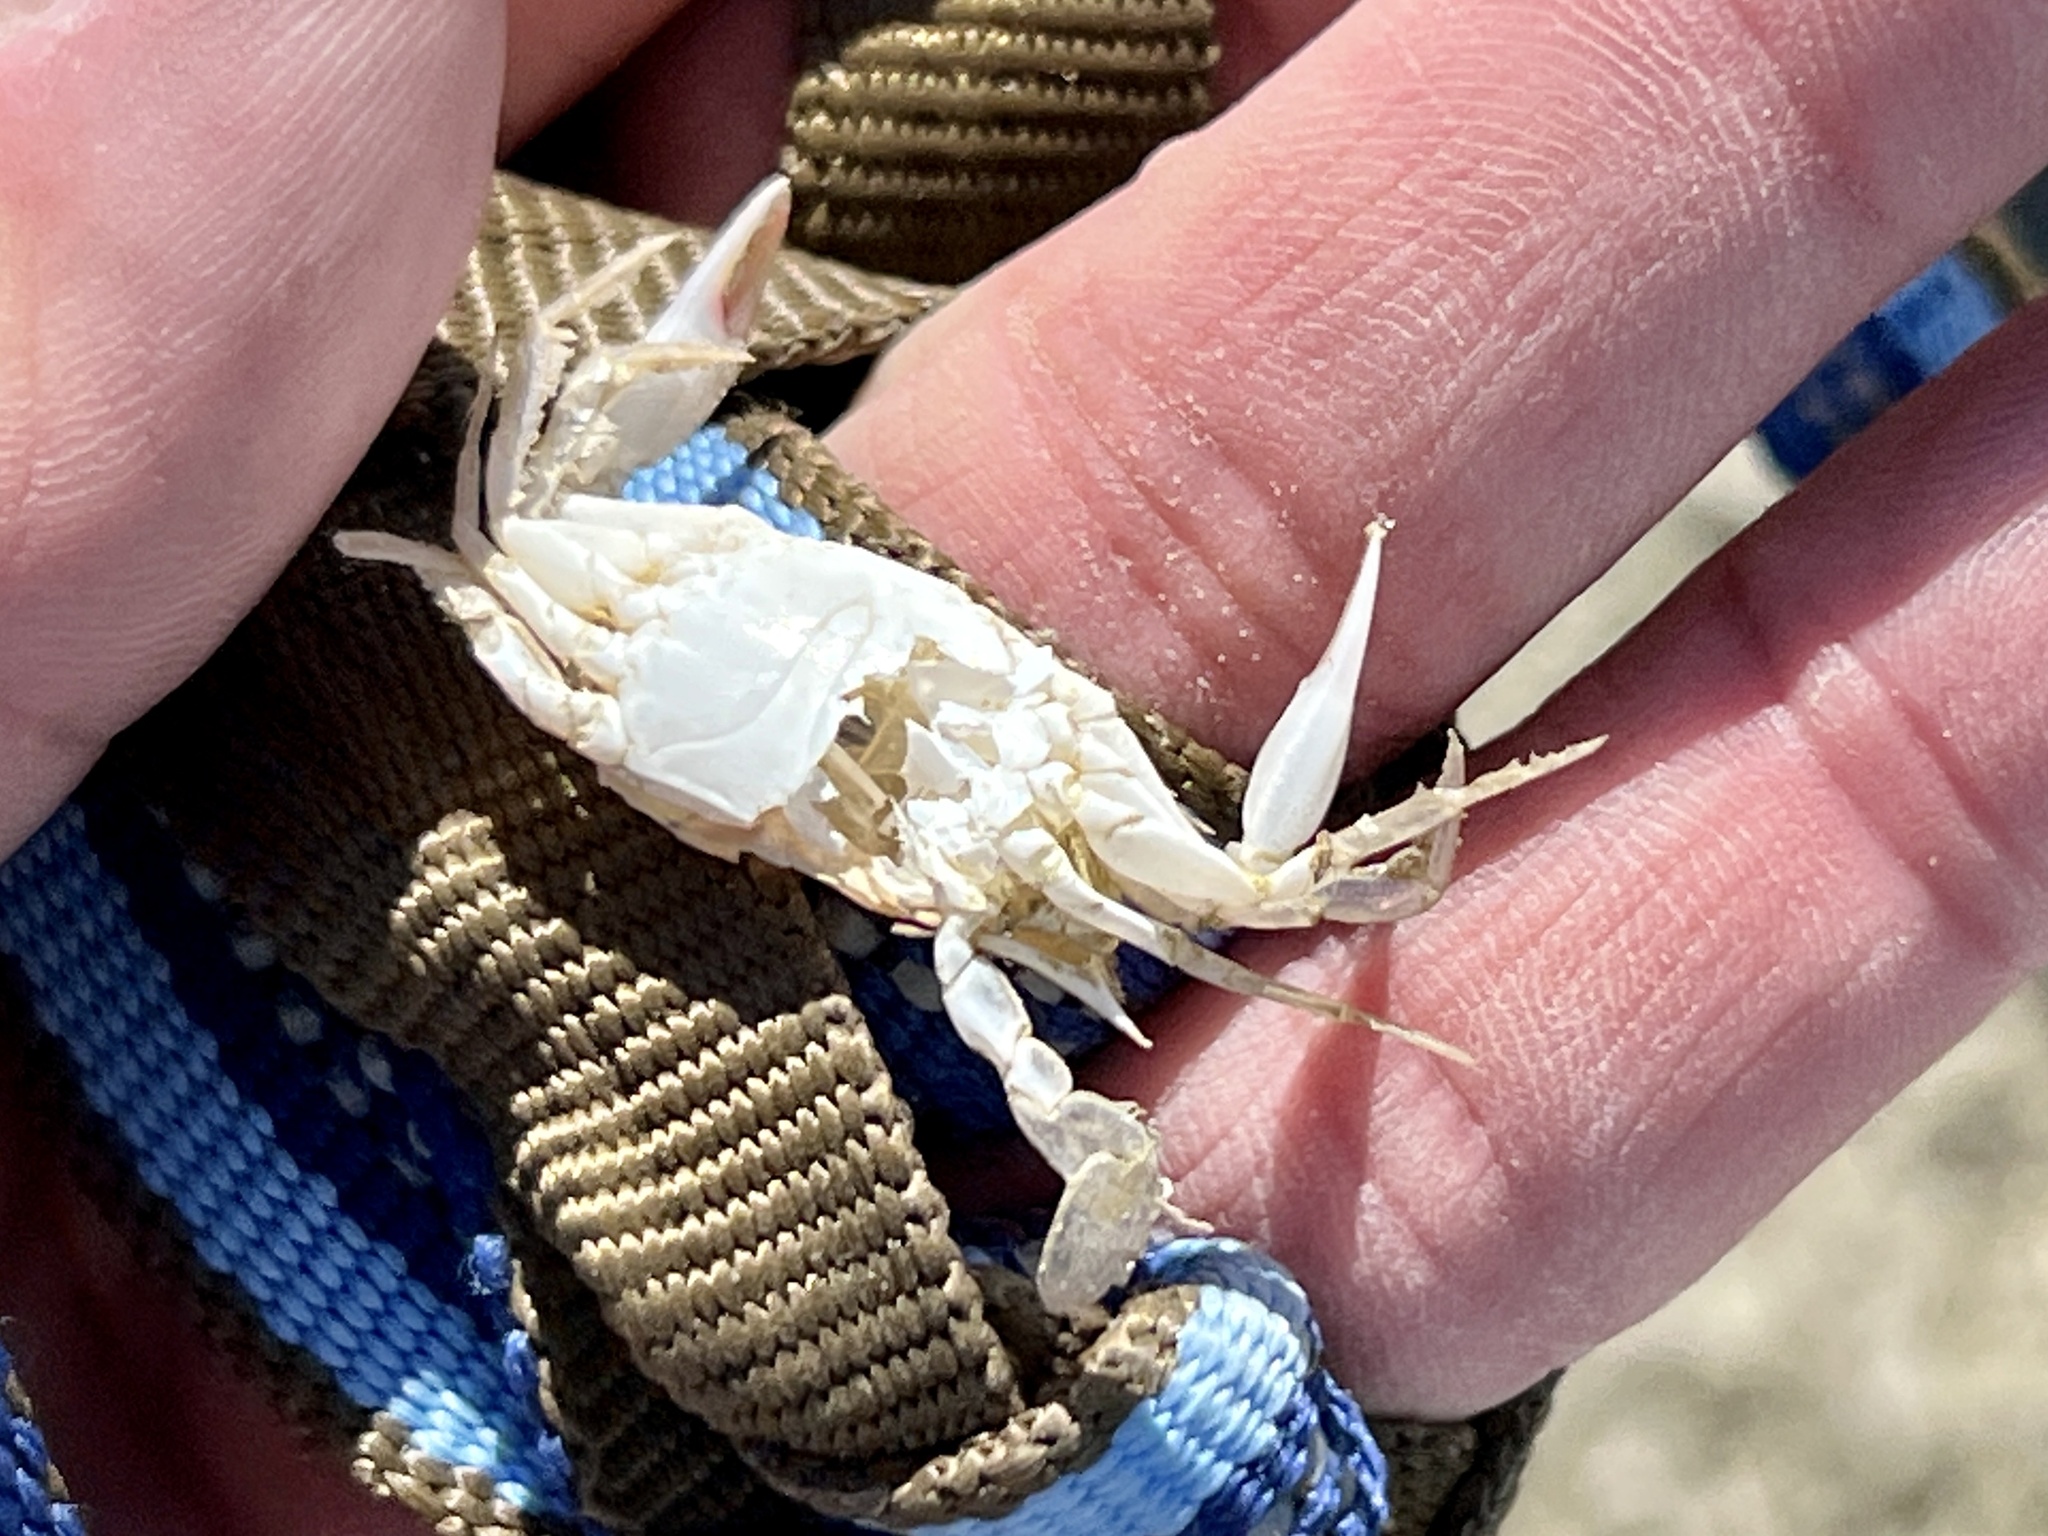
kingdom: Animalia
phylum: Arthropoda
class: Malacostraca
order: Decapoda
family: Portunidae
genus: Callinectes
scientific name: Callinectes sapidus
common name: Blue crab
